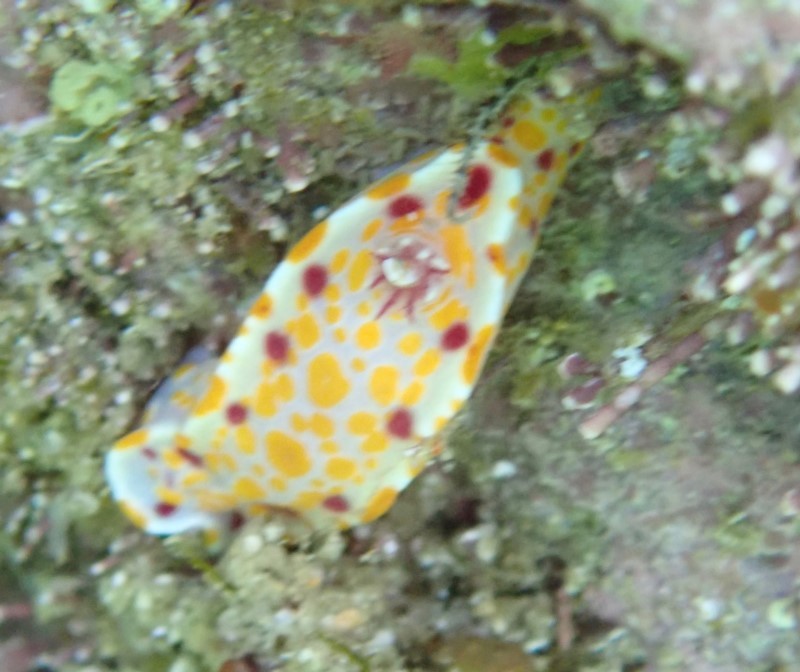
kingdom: Animalia
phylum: Mollusca
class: Gastropoda
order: Nudibranchia
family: Chromodorididae
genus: Ceratosoma
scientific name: Ceratosoma amoenum
